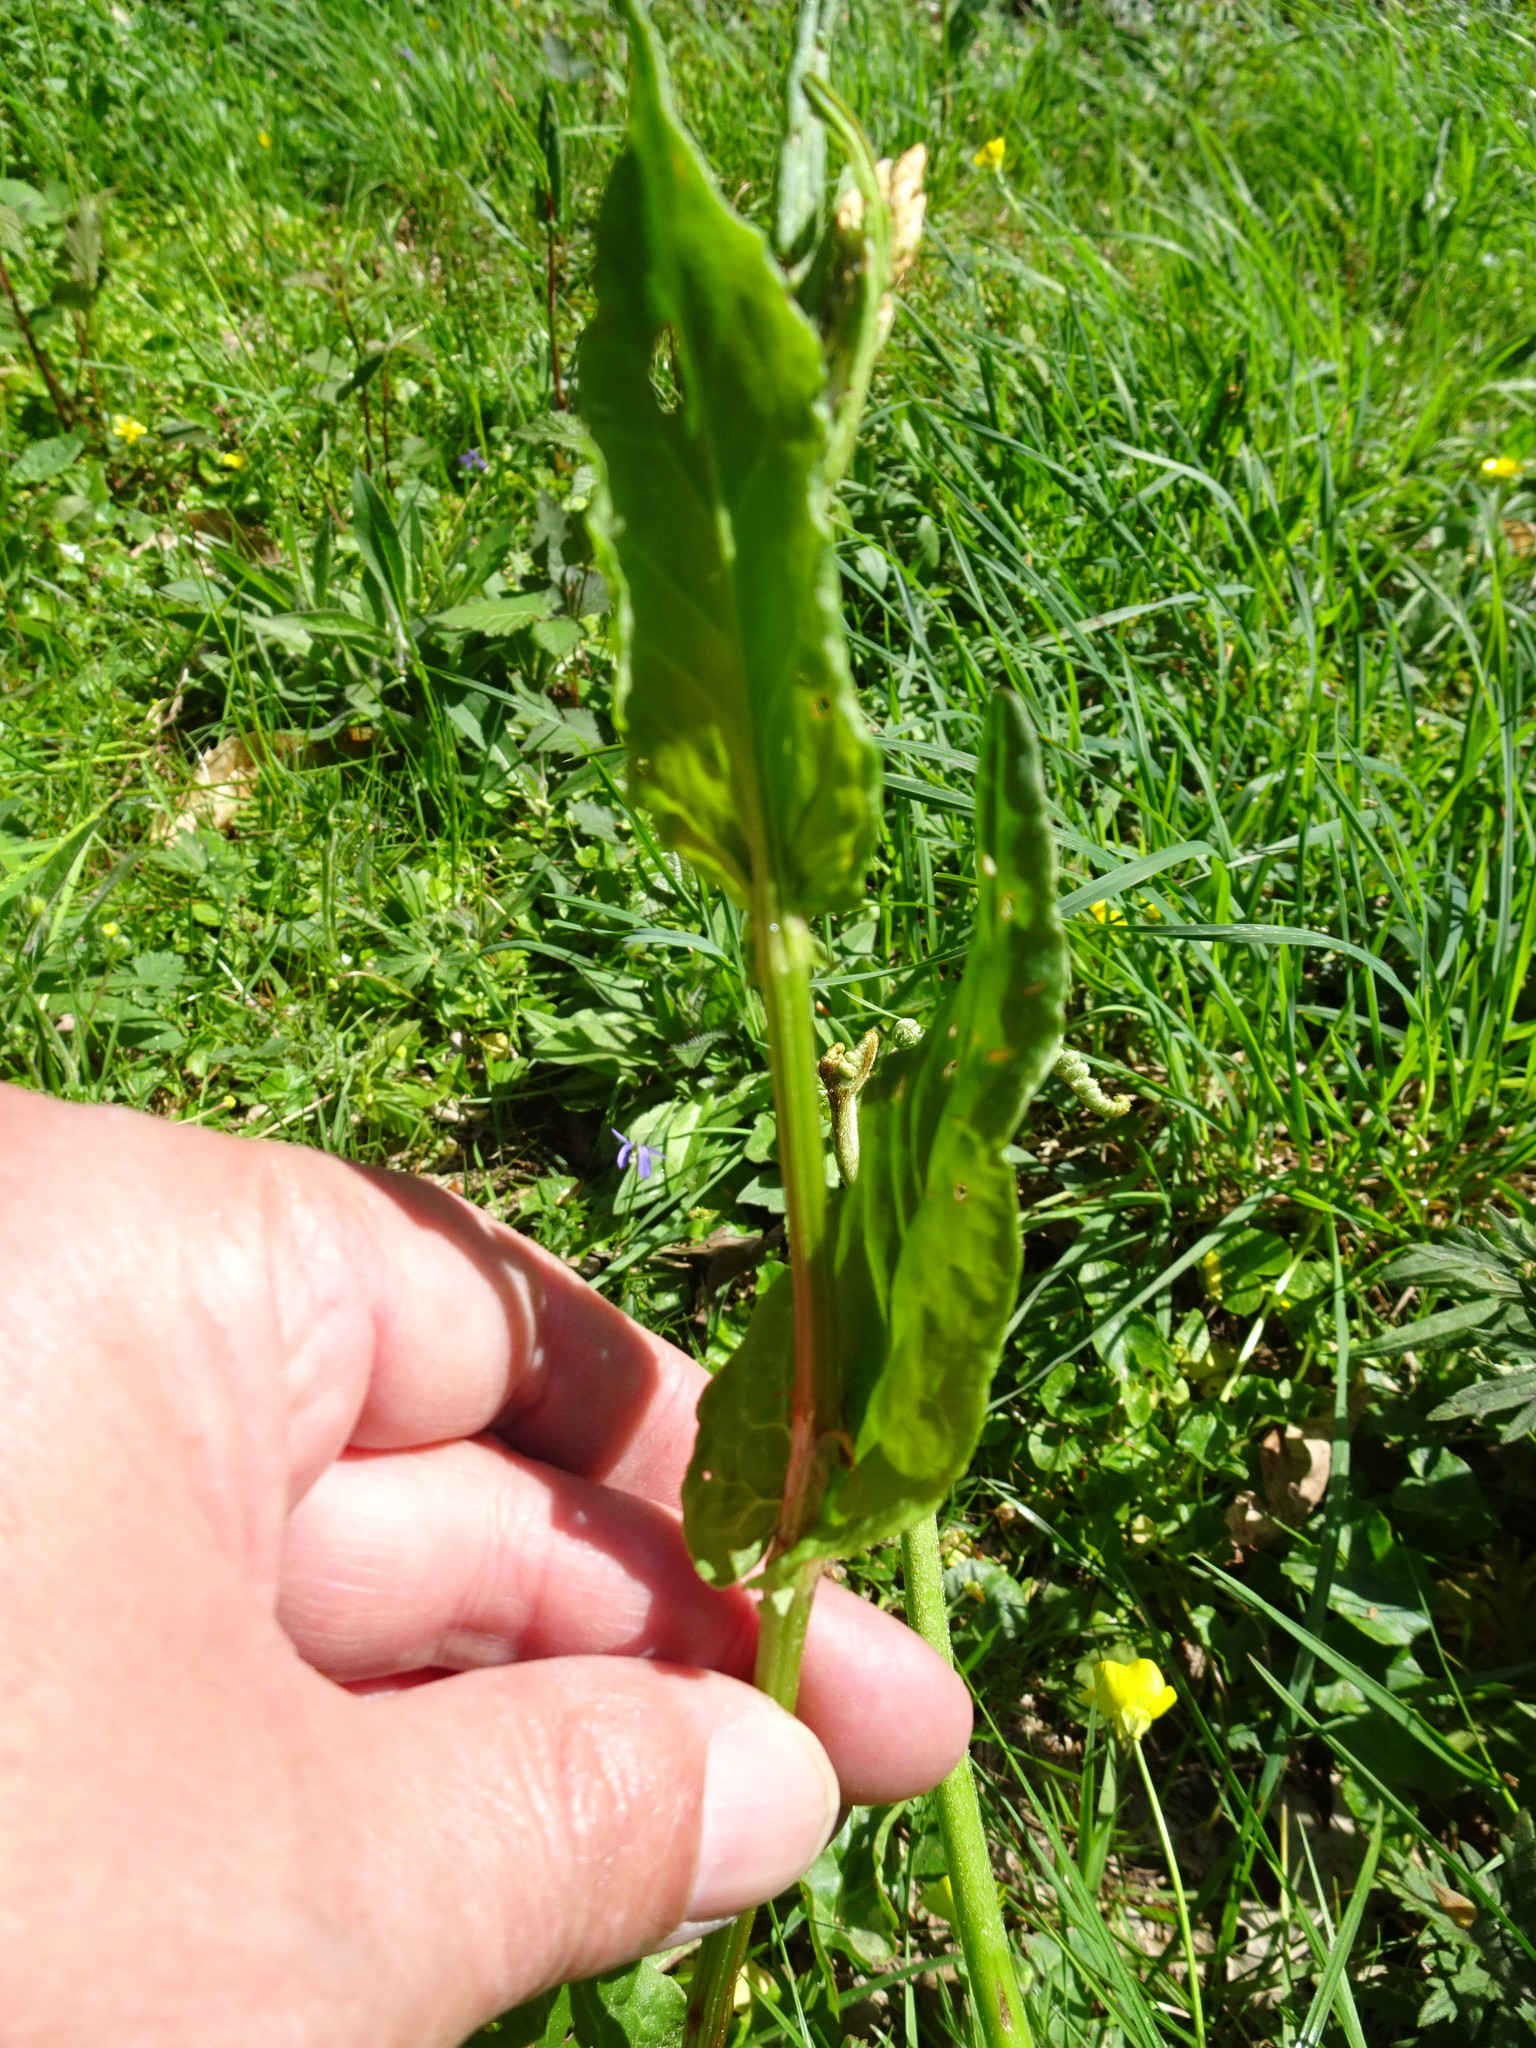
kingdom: Plantae
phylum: Tracheophyta
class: Magnoliopsida
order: Caryophyllales
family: Polygonaceae
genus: Rumex
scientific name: Rumex acetosa
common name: Garden sorrel
